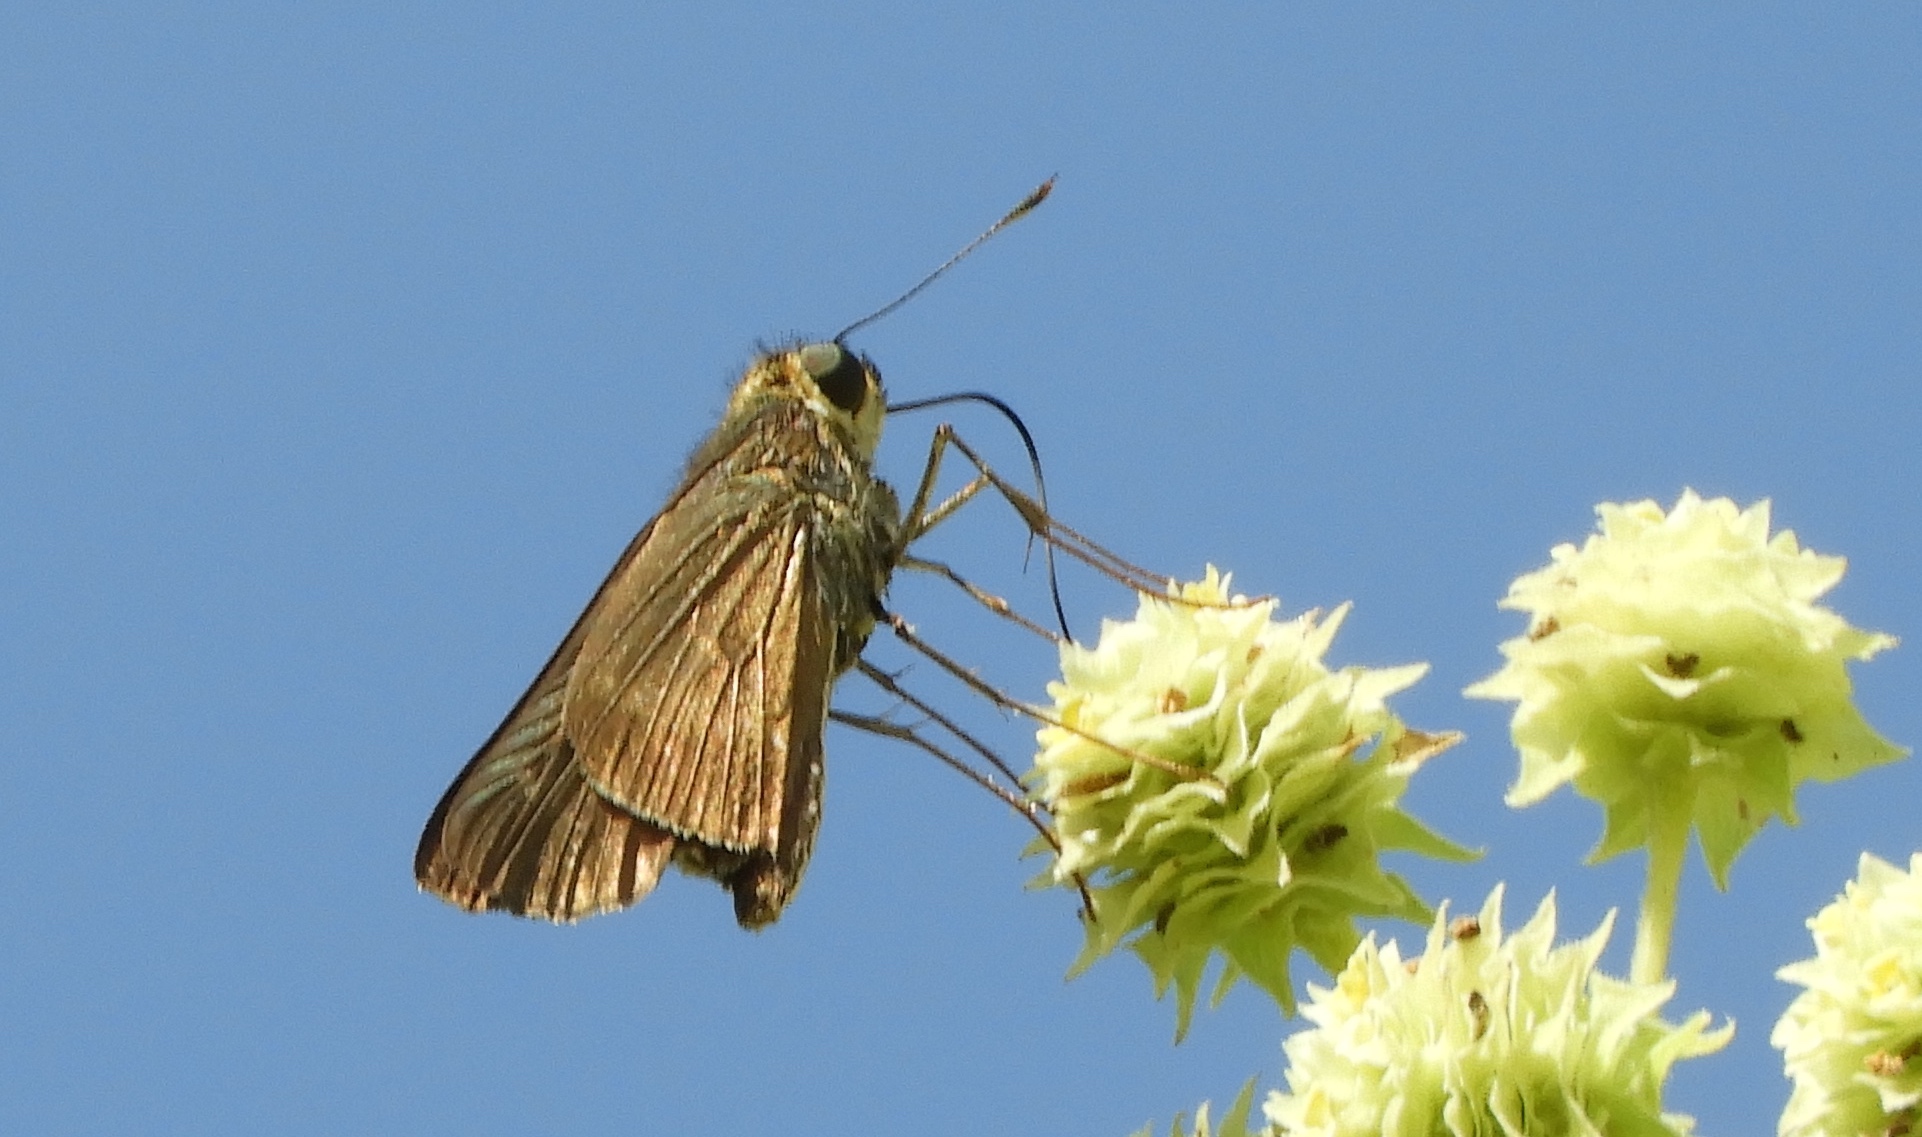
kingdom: Animalia
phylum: Arthropoda
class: Insecta
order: Lepidoptera
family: Hesperiidae
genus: Panoquina
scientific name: Panoquina
